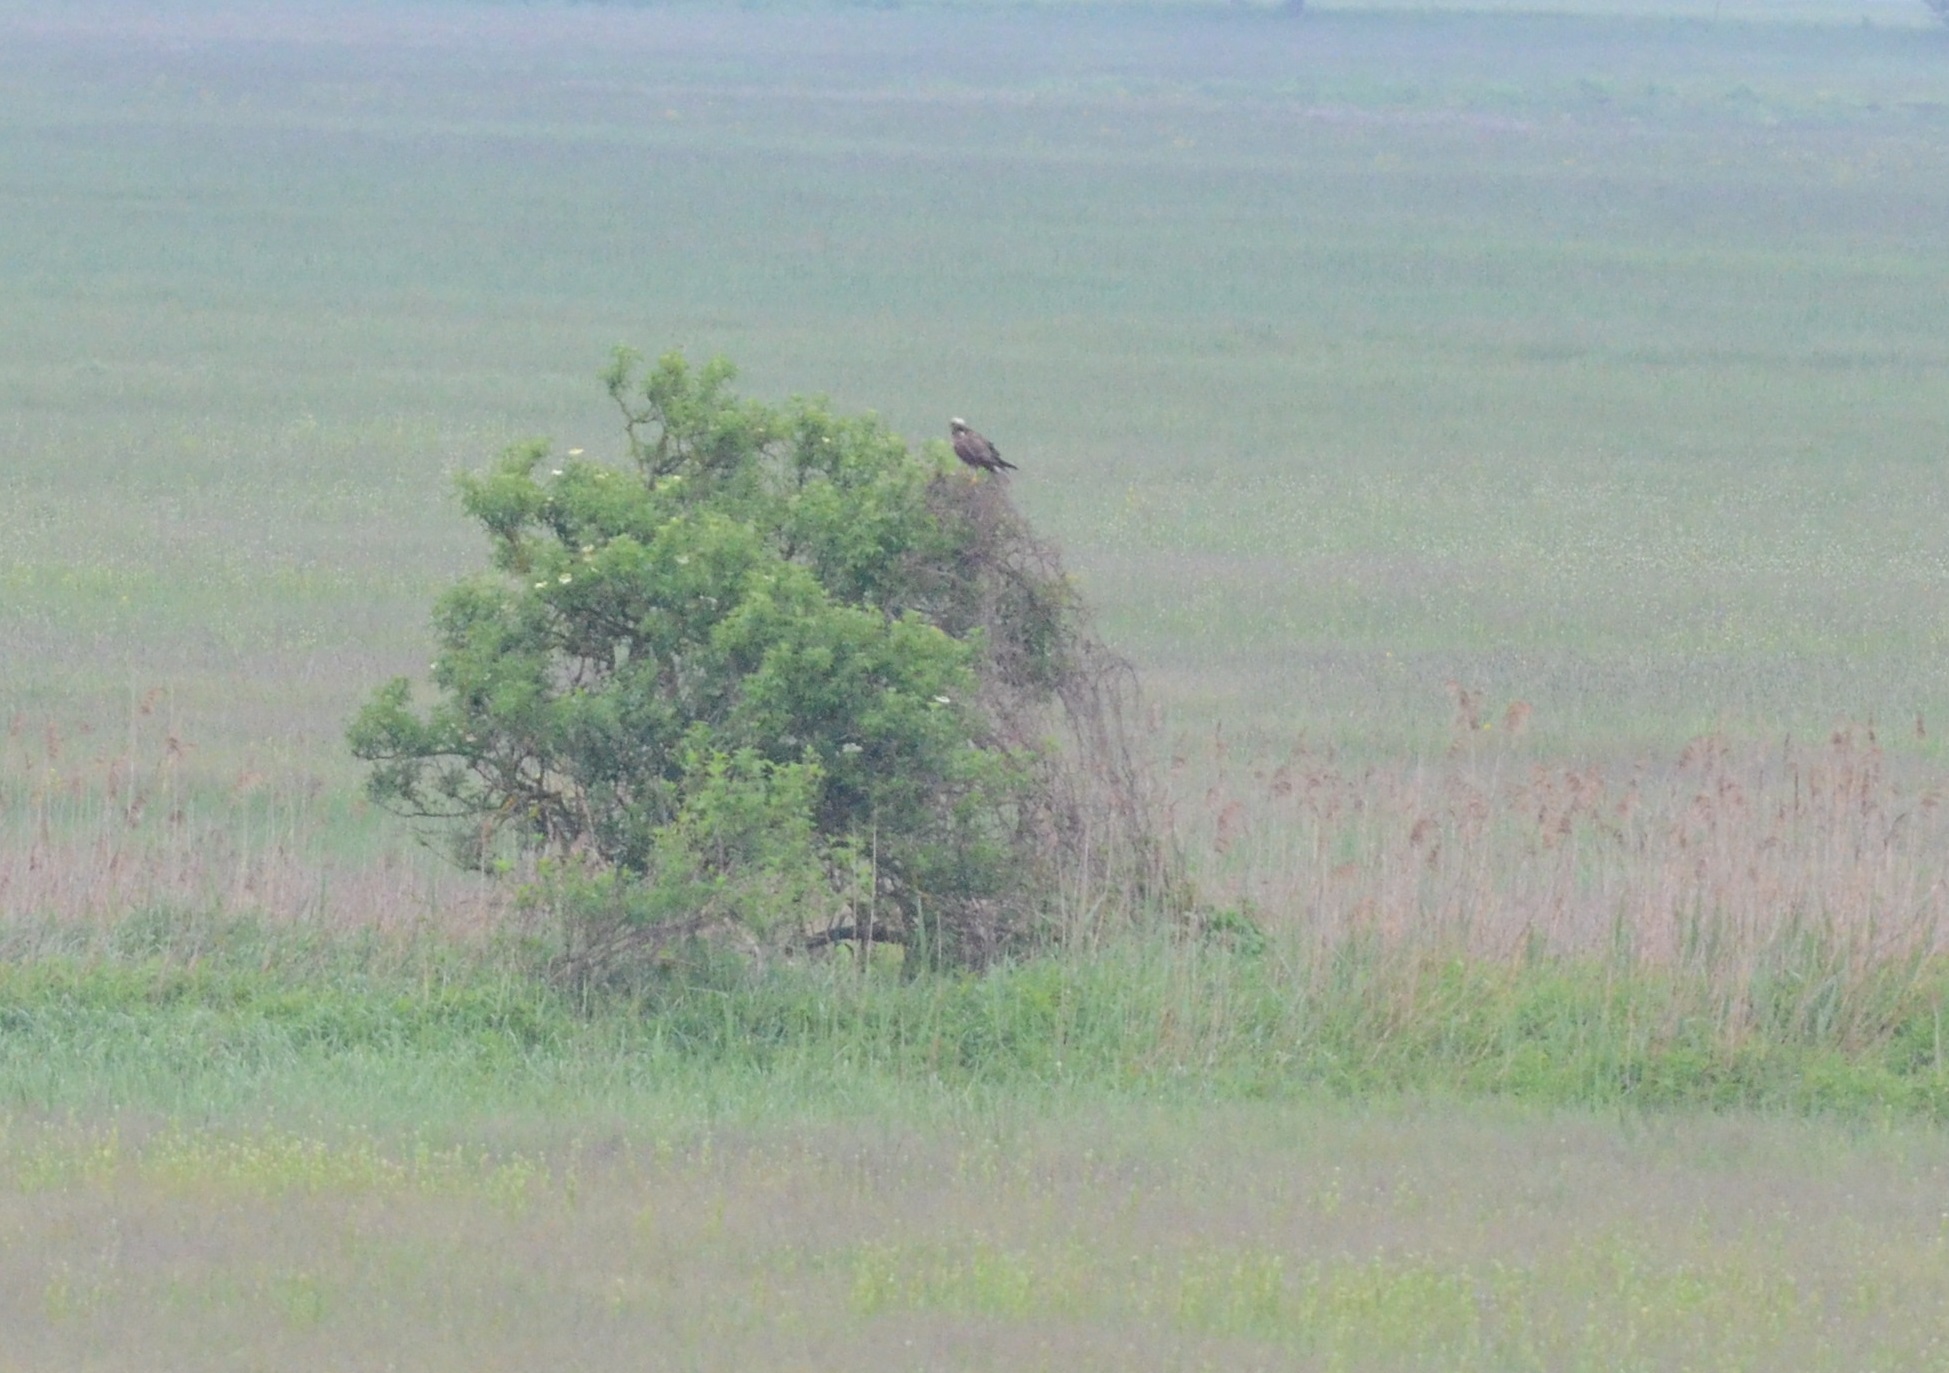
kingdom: Animalia
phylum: Chordata
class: Aves
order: Accipitriformes
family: Accipitridae
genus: Circus
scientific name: Circus aeruginosus
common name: Western marsh harrier
